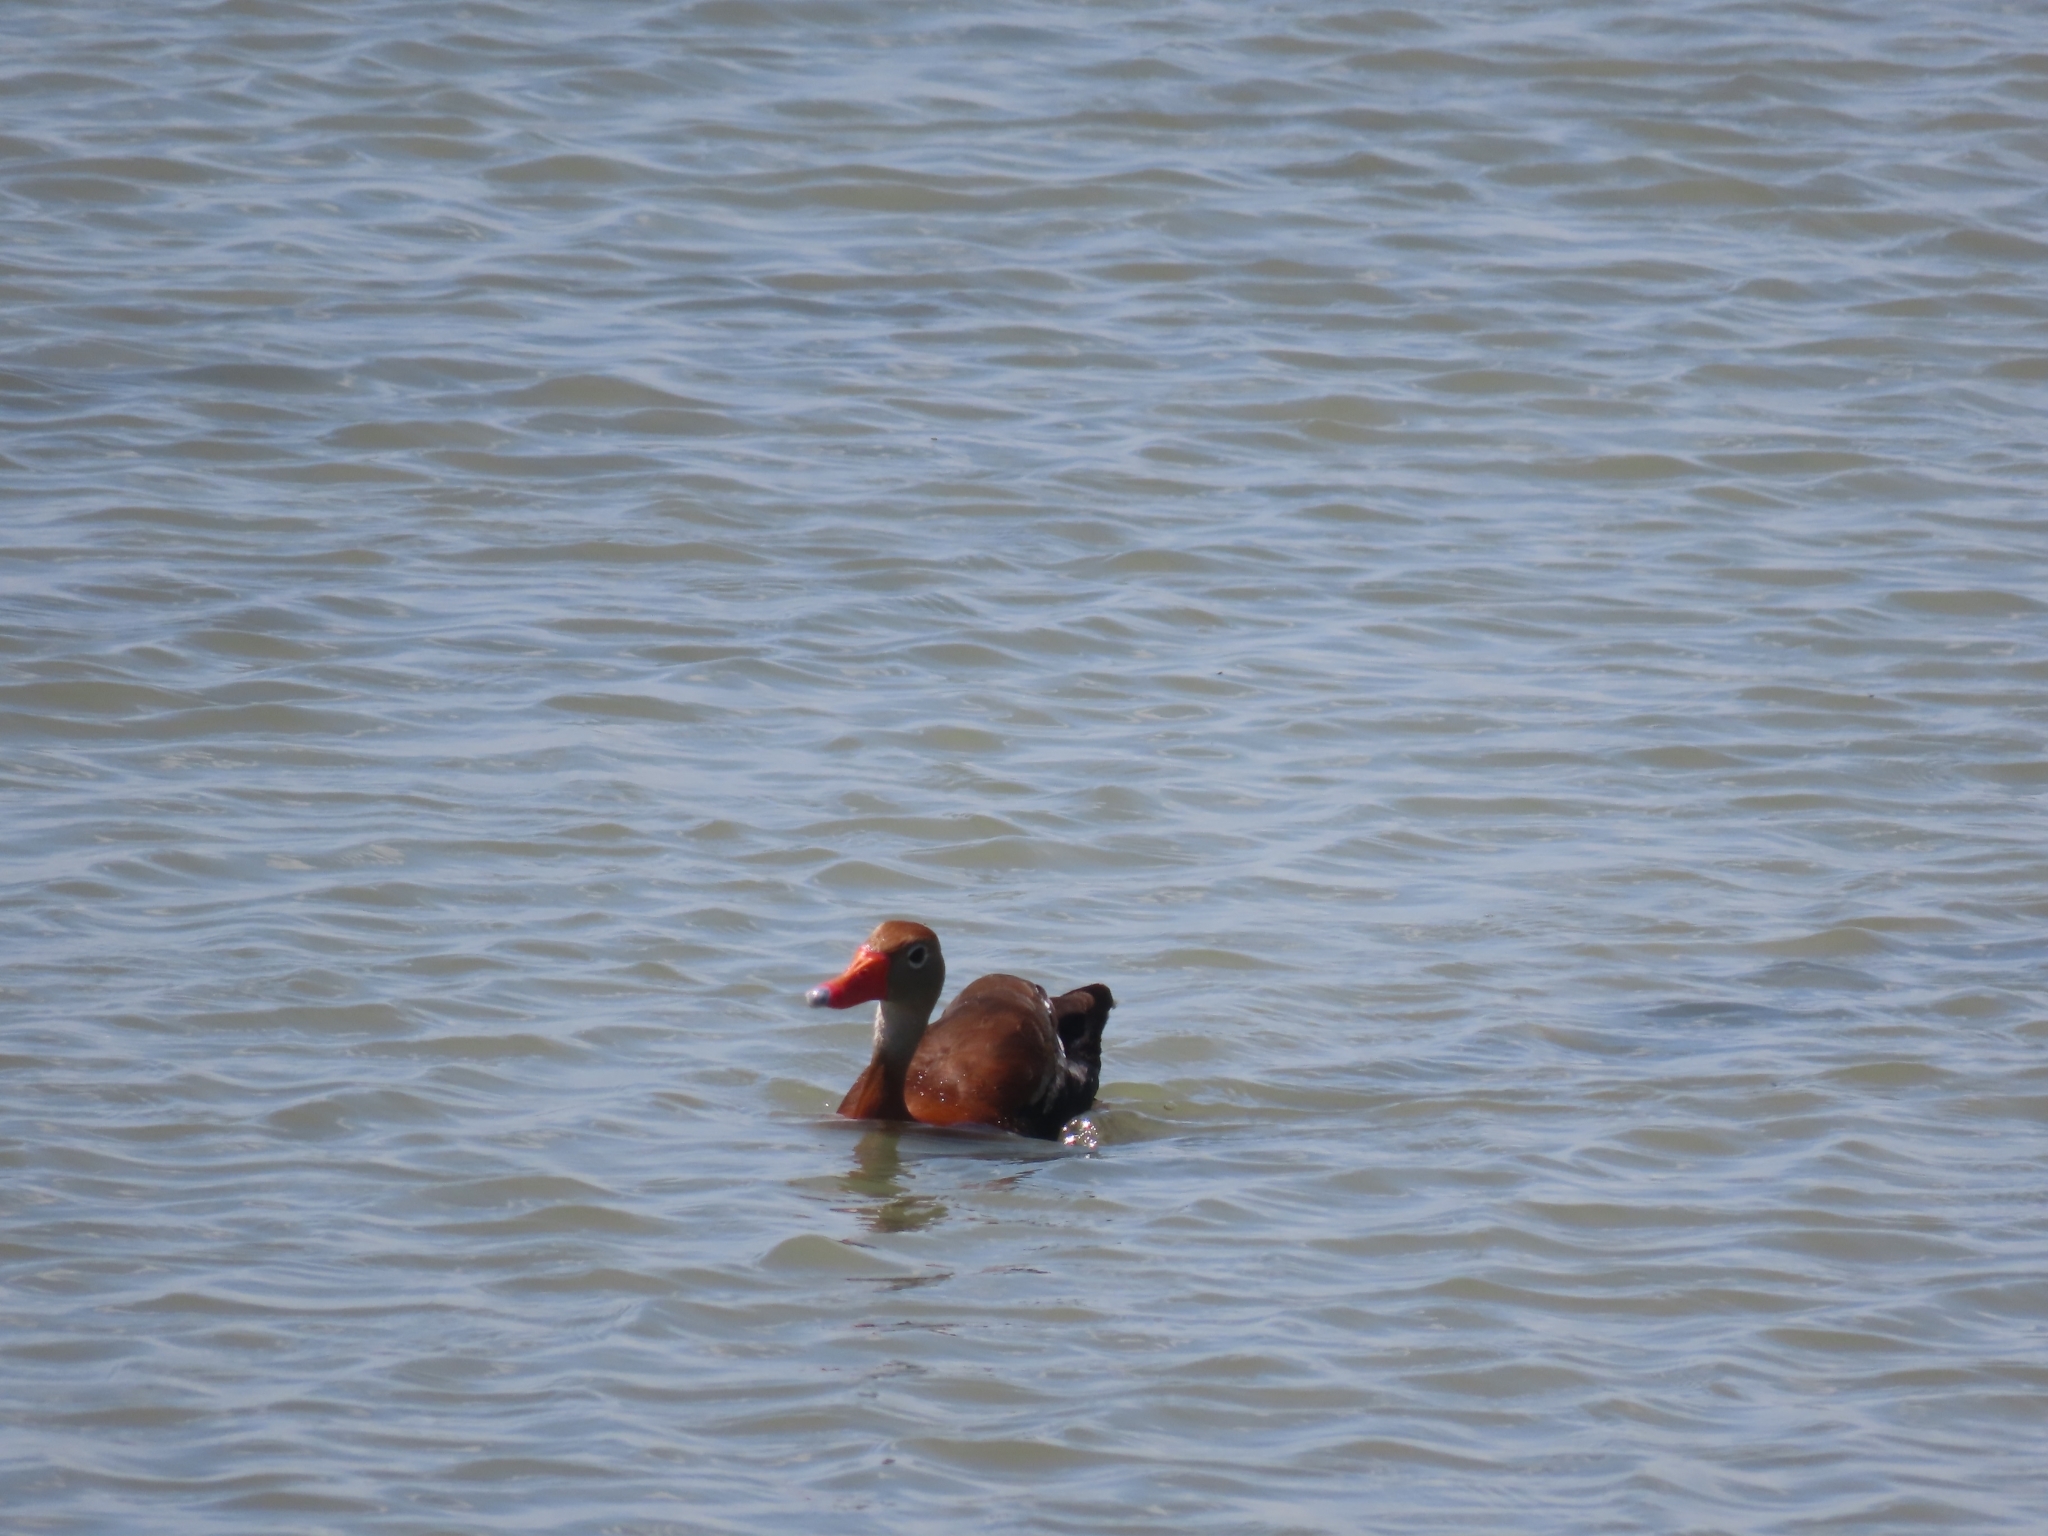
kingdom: Animalia
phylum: Chordata
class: Aves
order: Anseriformes
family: Anatidae
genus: Dendrocygna
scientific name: Dendrocygna autumnalis
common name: Black-bellied whistling duck
